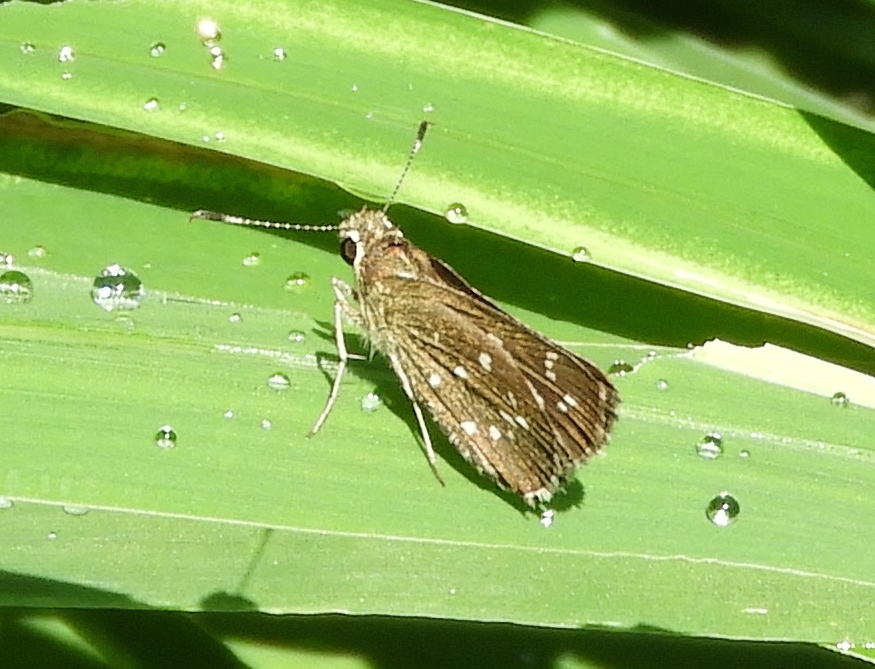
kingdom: Animalia
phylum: Arthropoda
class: Insecta
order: Lepidoptera
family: Hesperiidae
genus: Mastor
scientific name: Mastor tolteca
